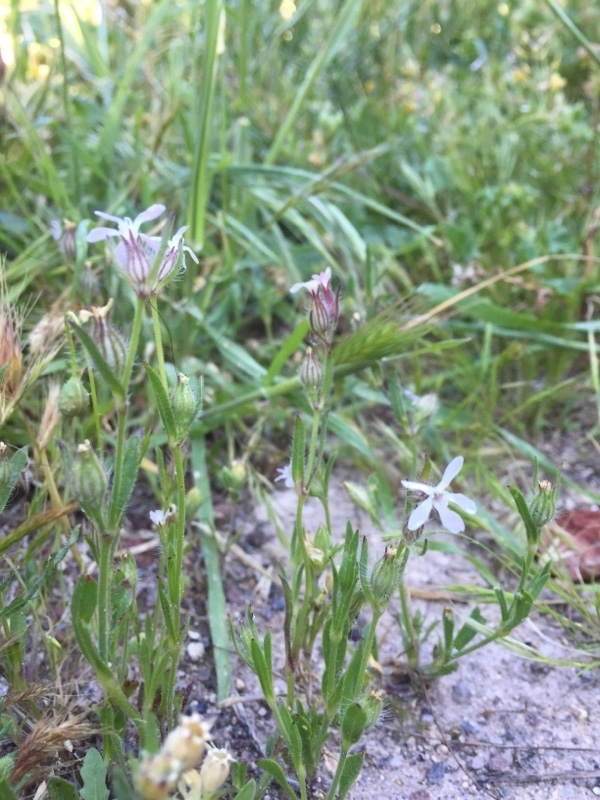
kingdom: Plantae
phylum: Tracheophyta
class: Magnoliopsida
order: Caryophyllales
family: Caryophyllaceae
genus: Silene
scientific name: Silene gallica
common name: Small-flowered catchfly
